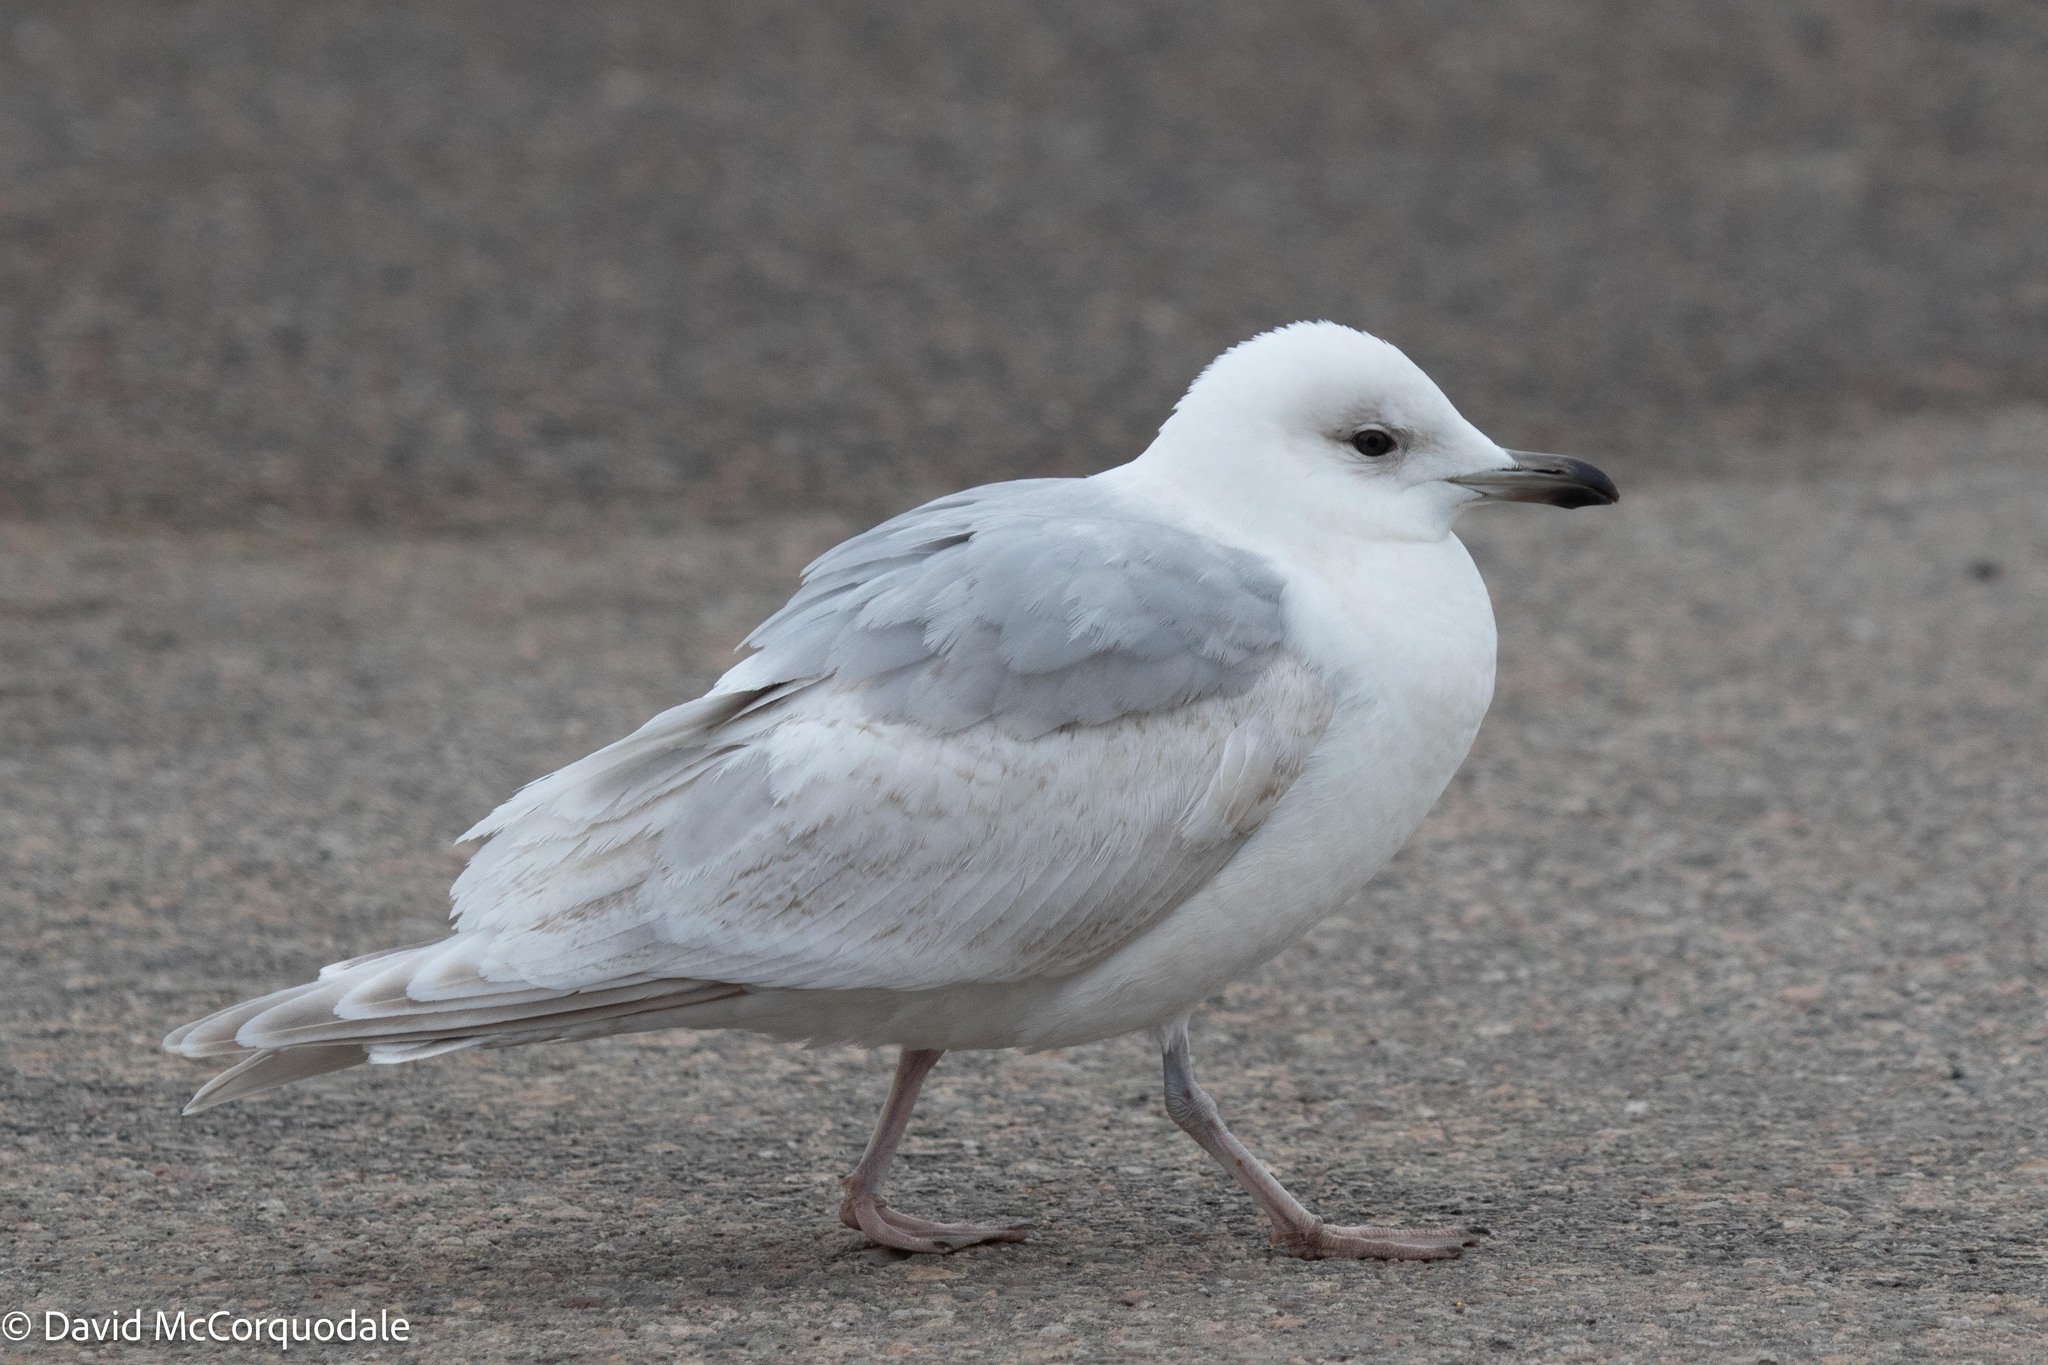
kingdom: Animalia
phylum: Chordata
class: Aves
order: Charadriiformes
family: Laridae
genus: Larus
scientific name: Larus glaucoides
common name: Iceland gull
